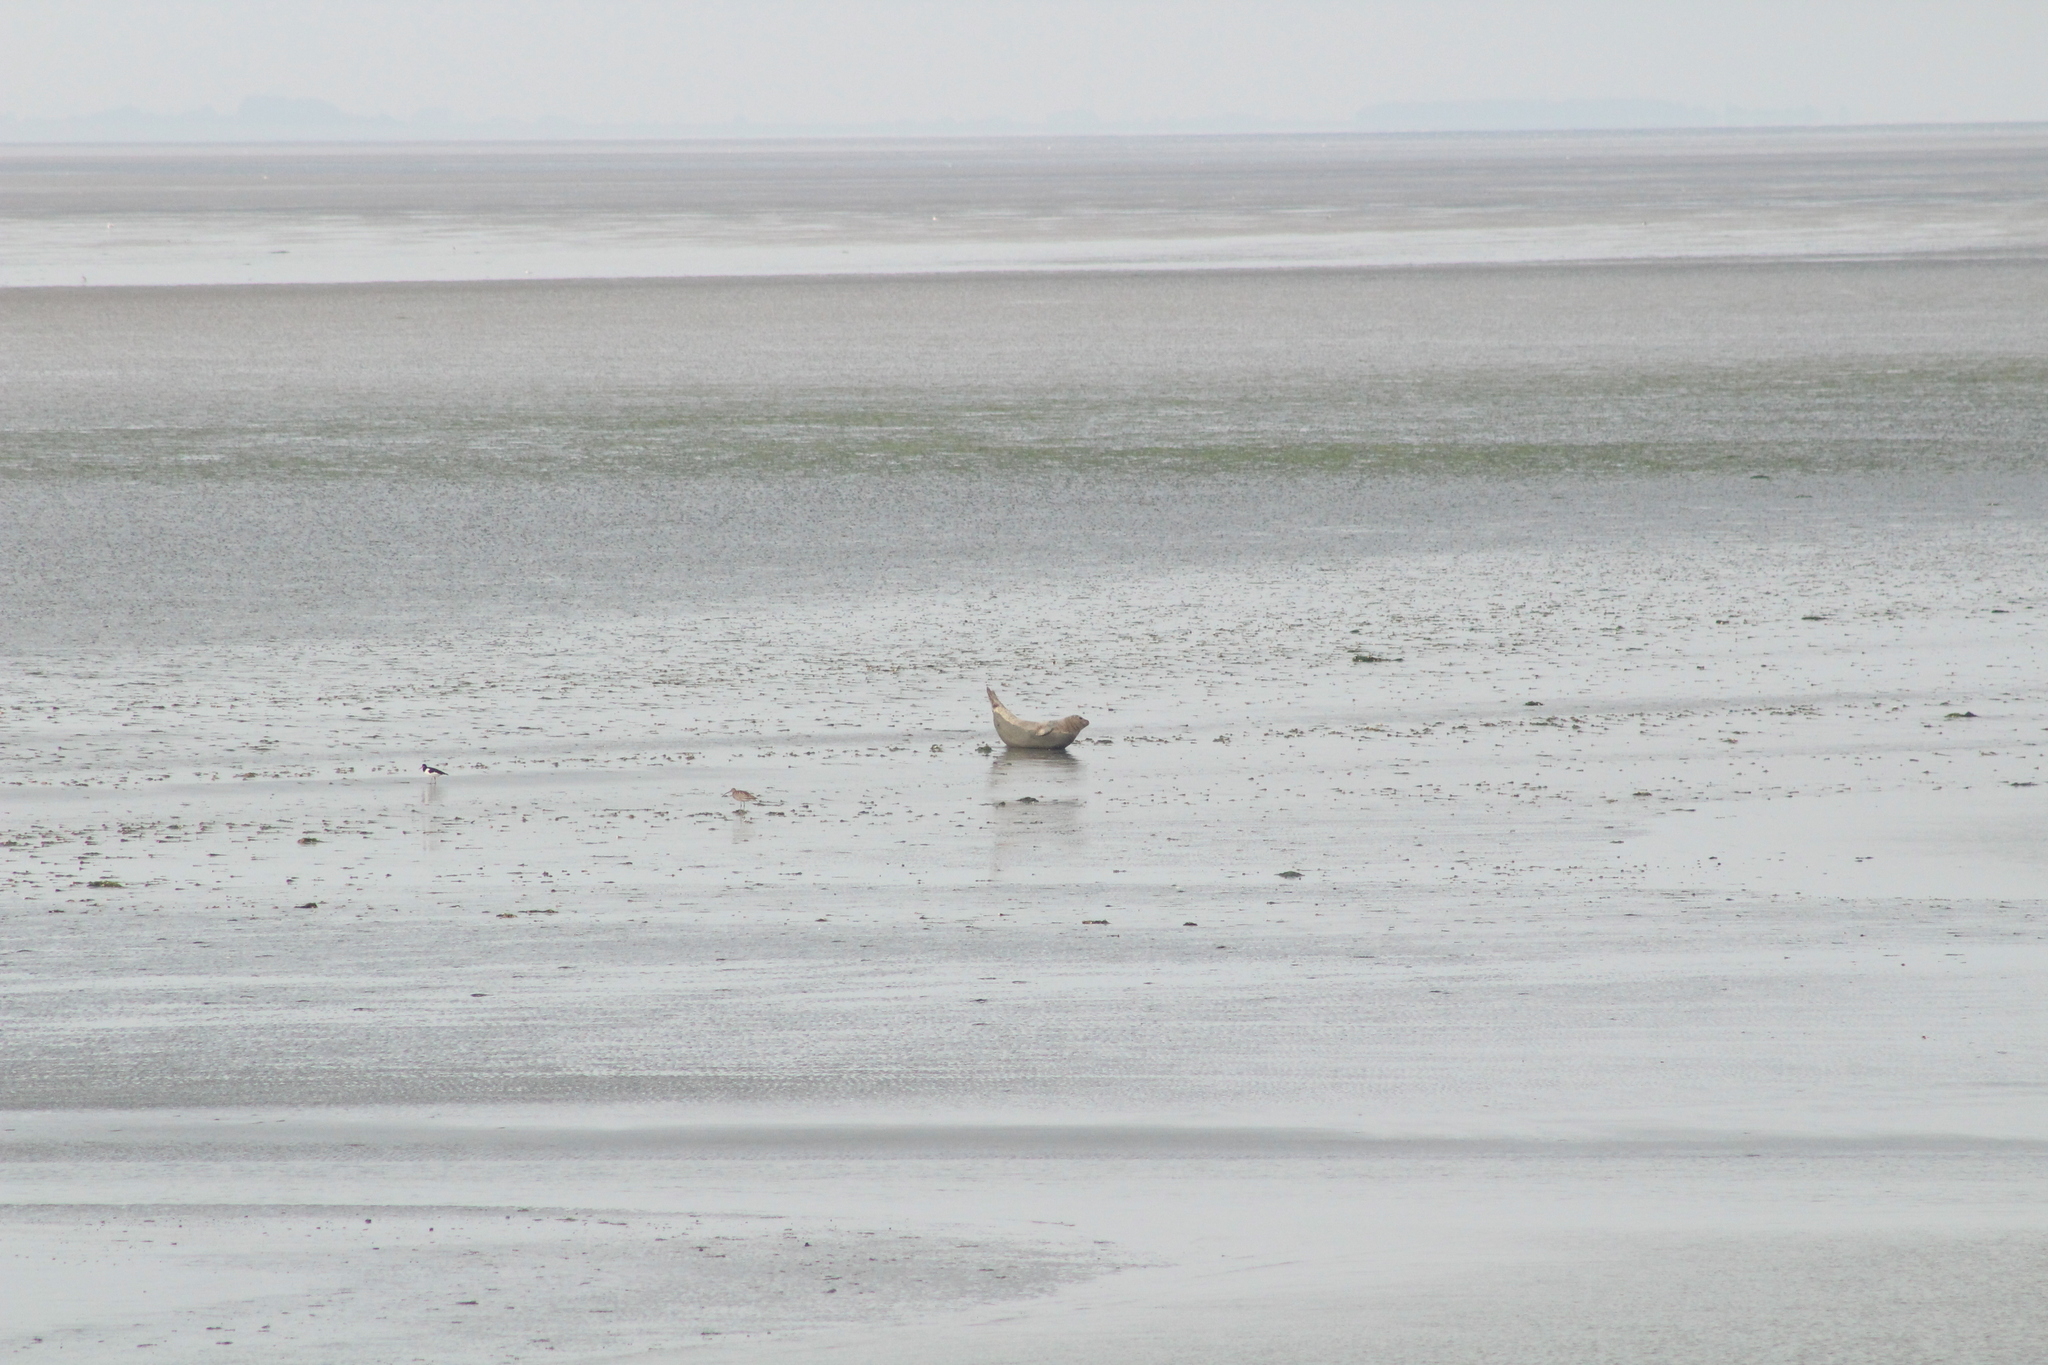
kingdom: Animalia
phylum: Chordata
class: Mammalia
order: Carnivora
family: Phocidae
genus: Phoca
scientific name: Phoca vitulina
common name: Harbor seal
